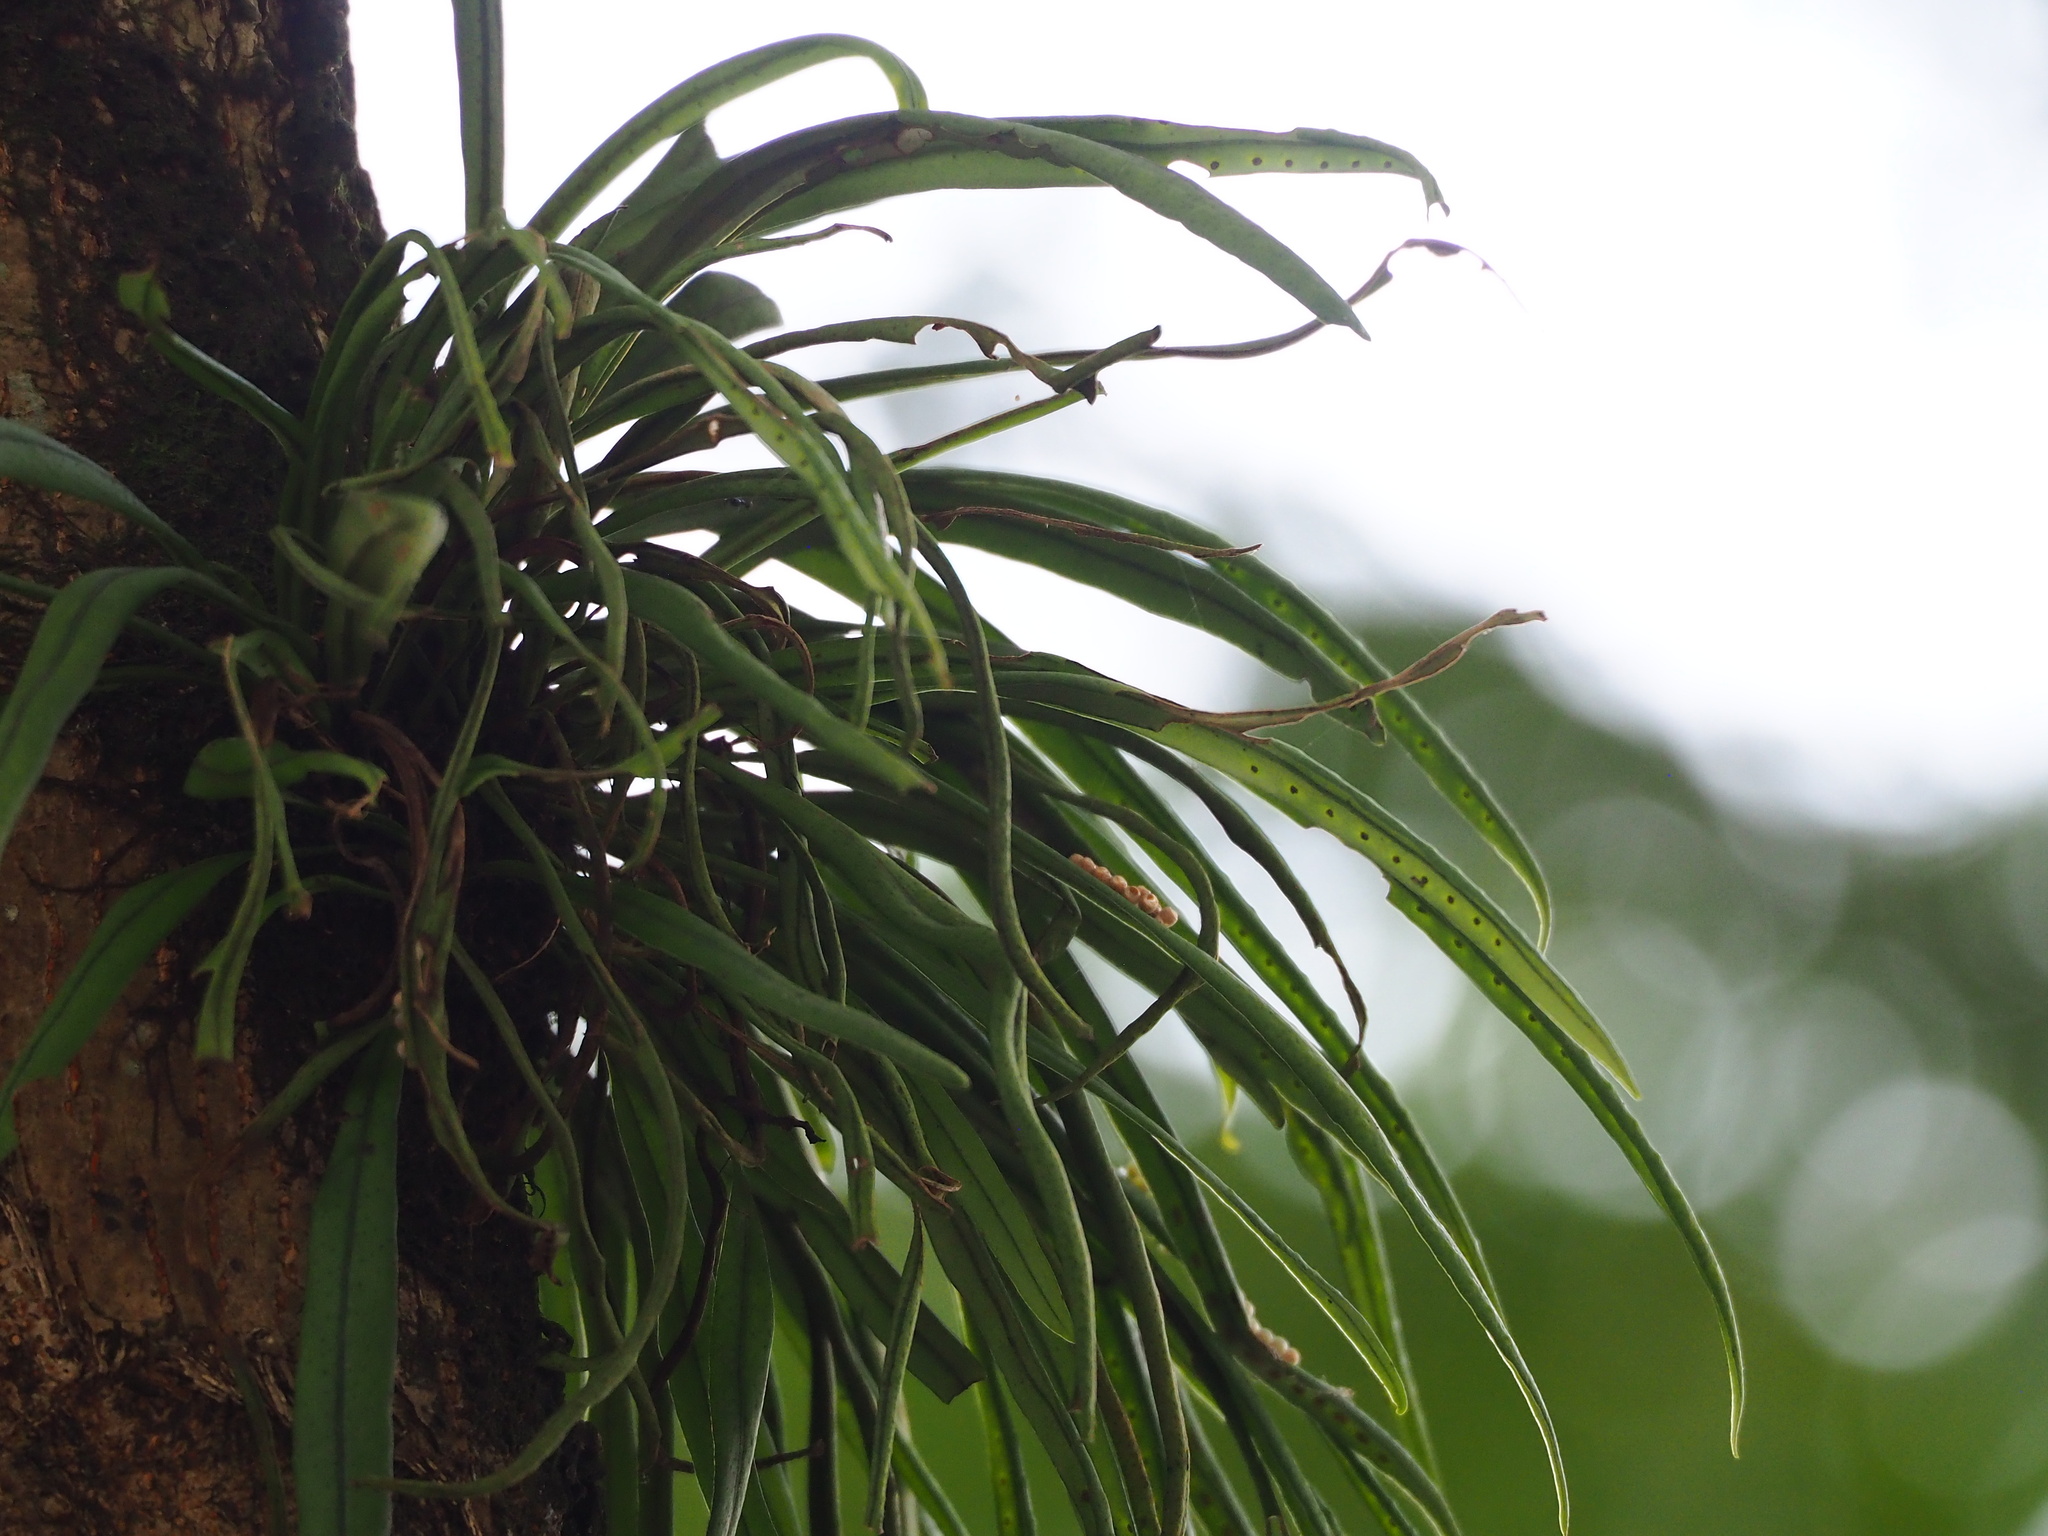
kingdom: Plantae
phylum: Tracheophyta
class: Polypodiopsida
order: Polypodiales
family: Polypodiaceae
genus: Lepisorus
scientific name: Lepisorus thunbergianus
